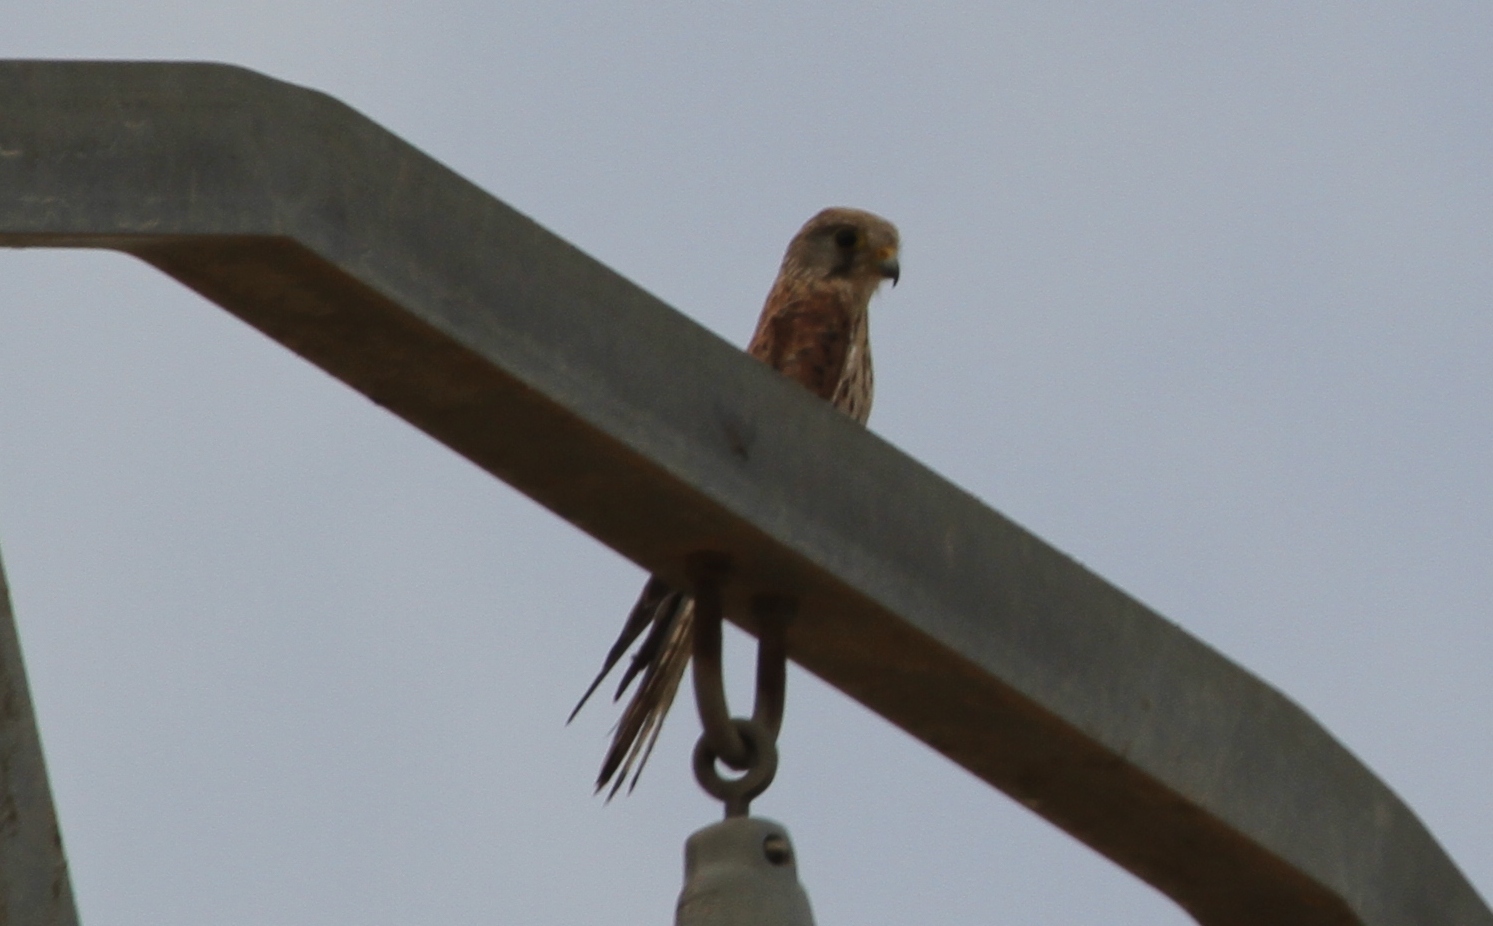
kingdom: Animalia
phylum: Chordata
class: Aves
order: Falconiformes
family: Falconidae
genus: Falco
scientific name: Falco tinnunculus
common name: Common kestrel
